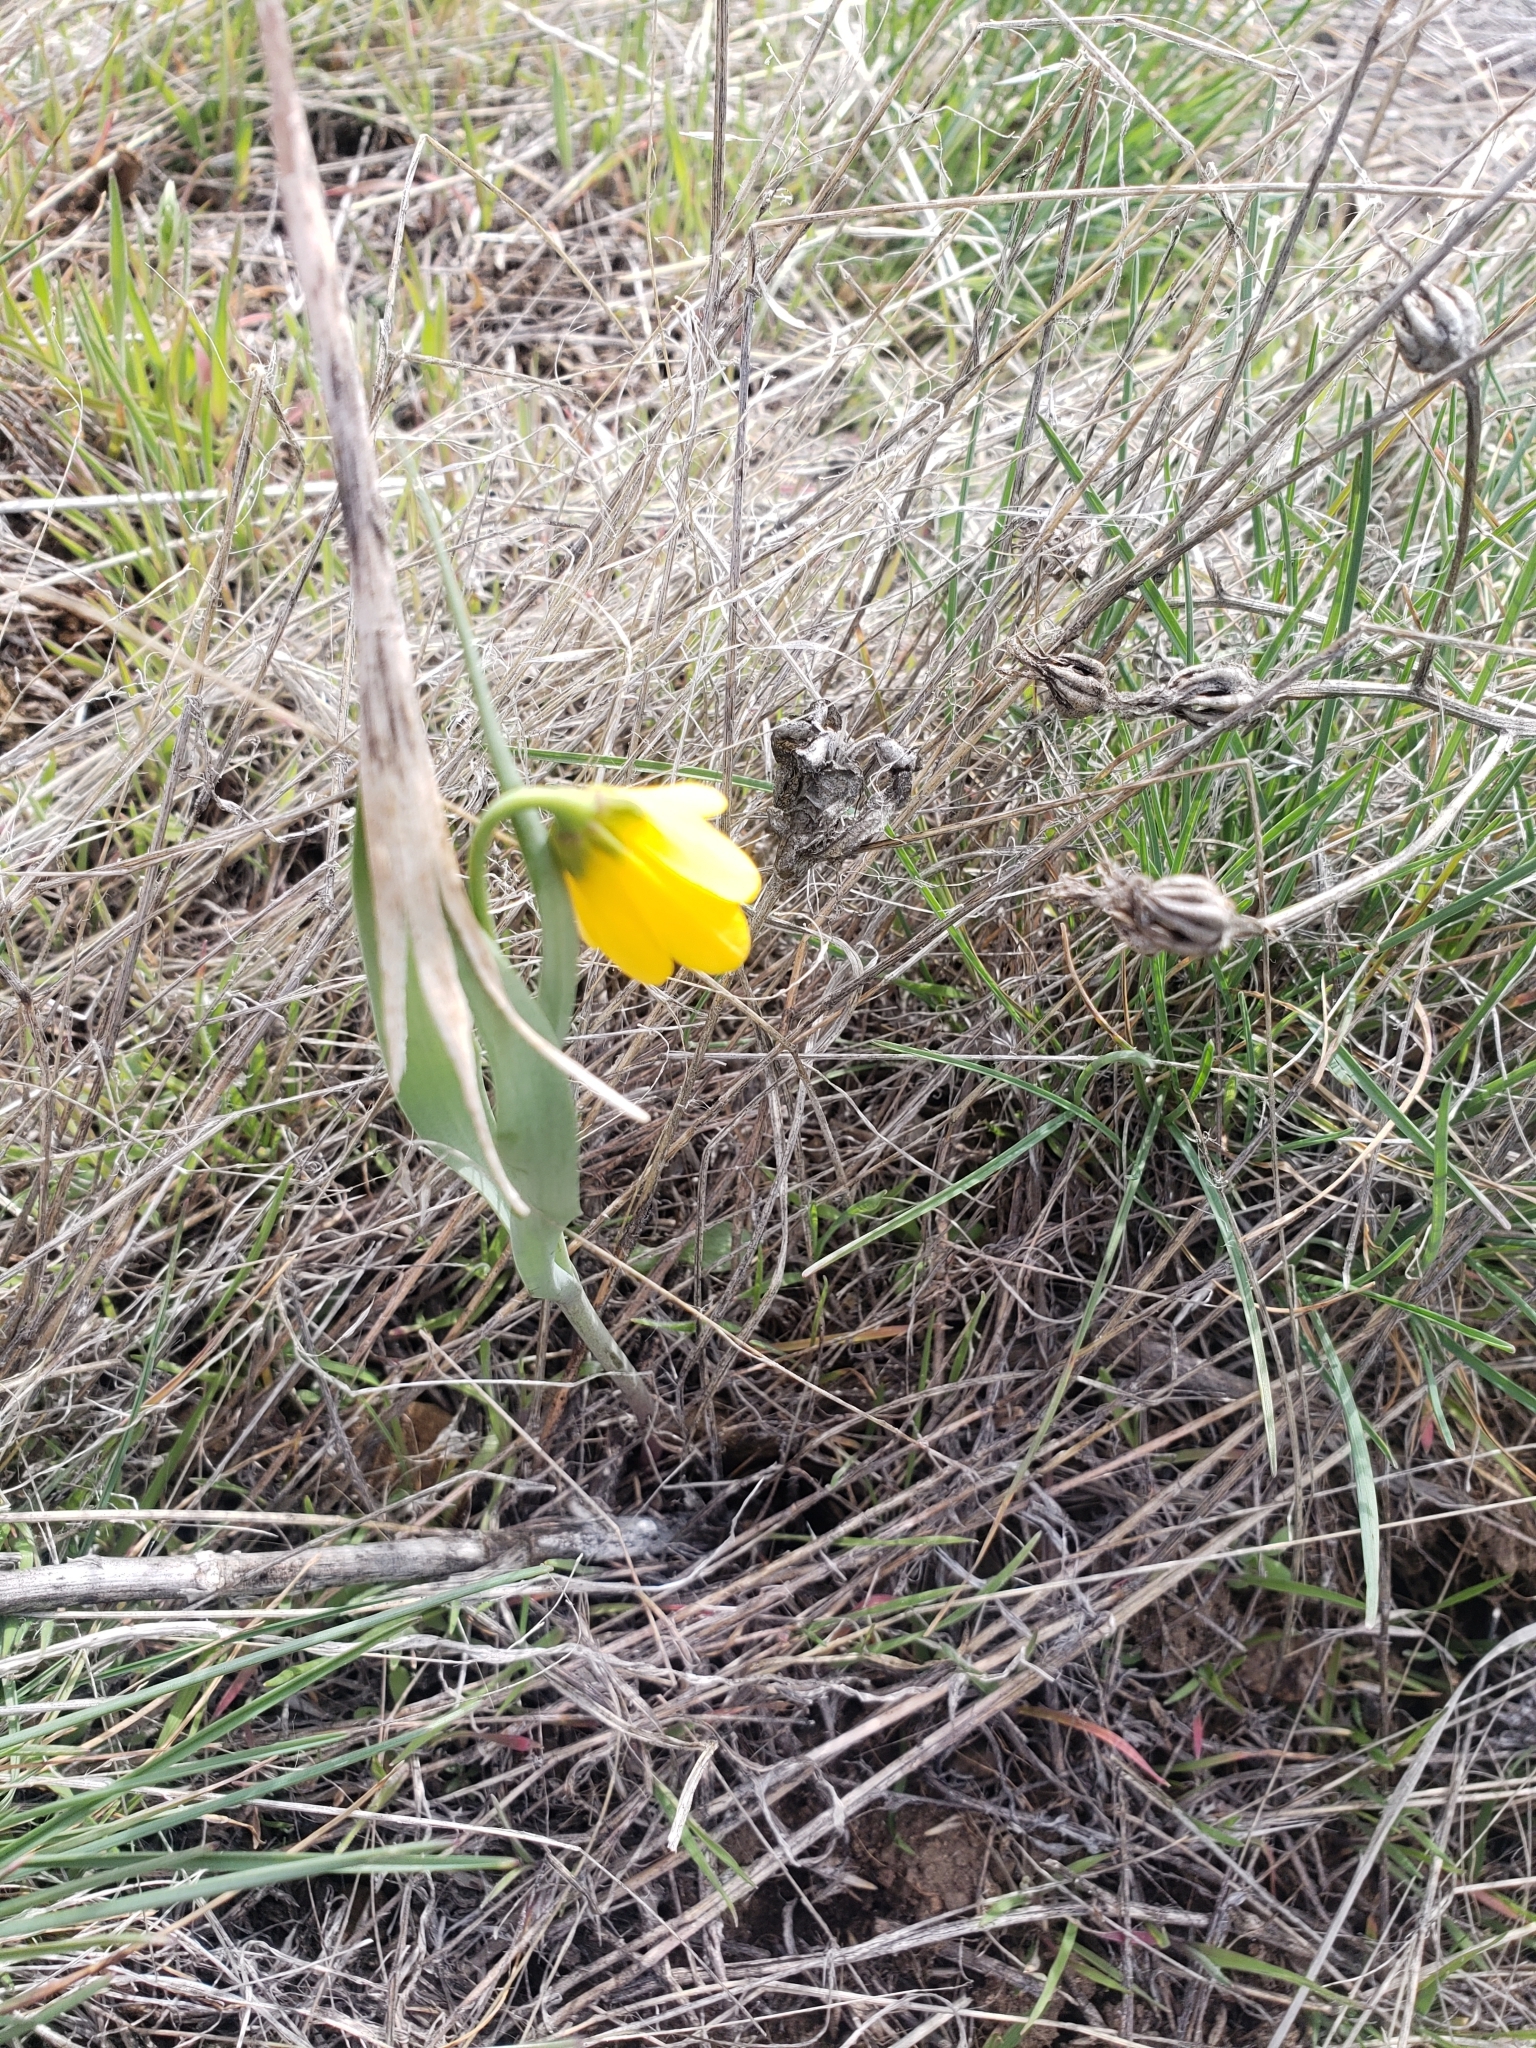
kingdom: Plantae
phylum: Tracheophyta
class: Liliopsida
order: Liliales
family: Liliaceae
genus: Fritillaria
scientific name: Fritillaria pudica
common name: Yellow fritillary
